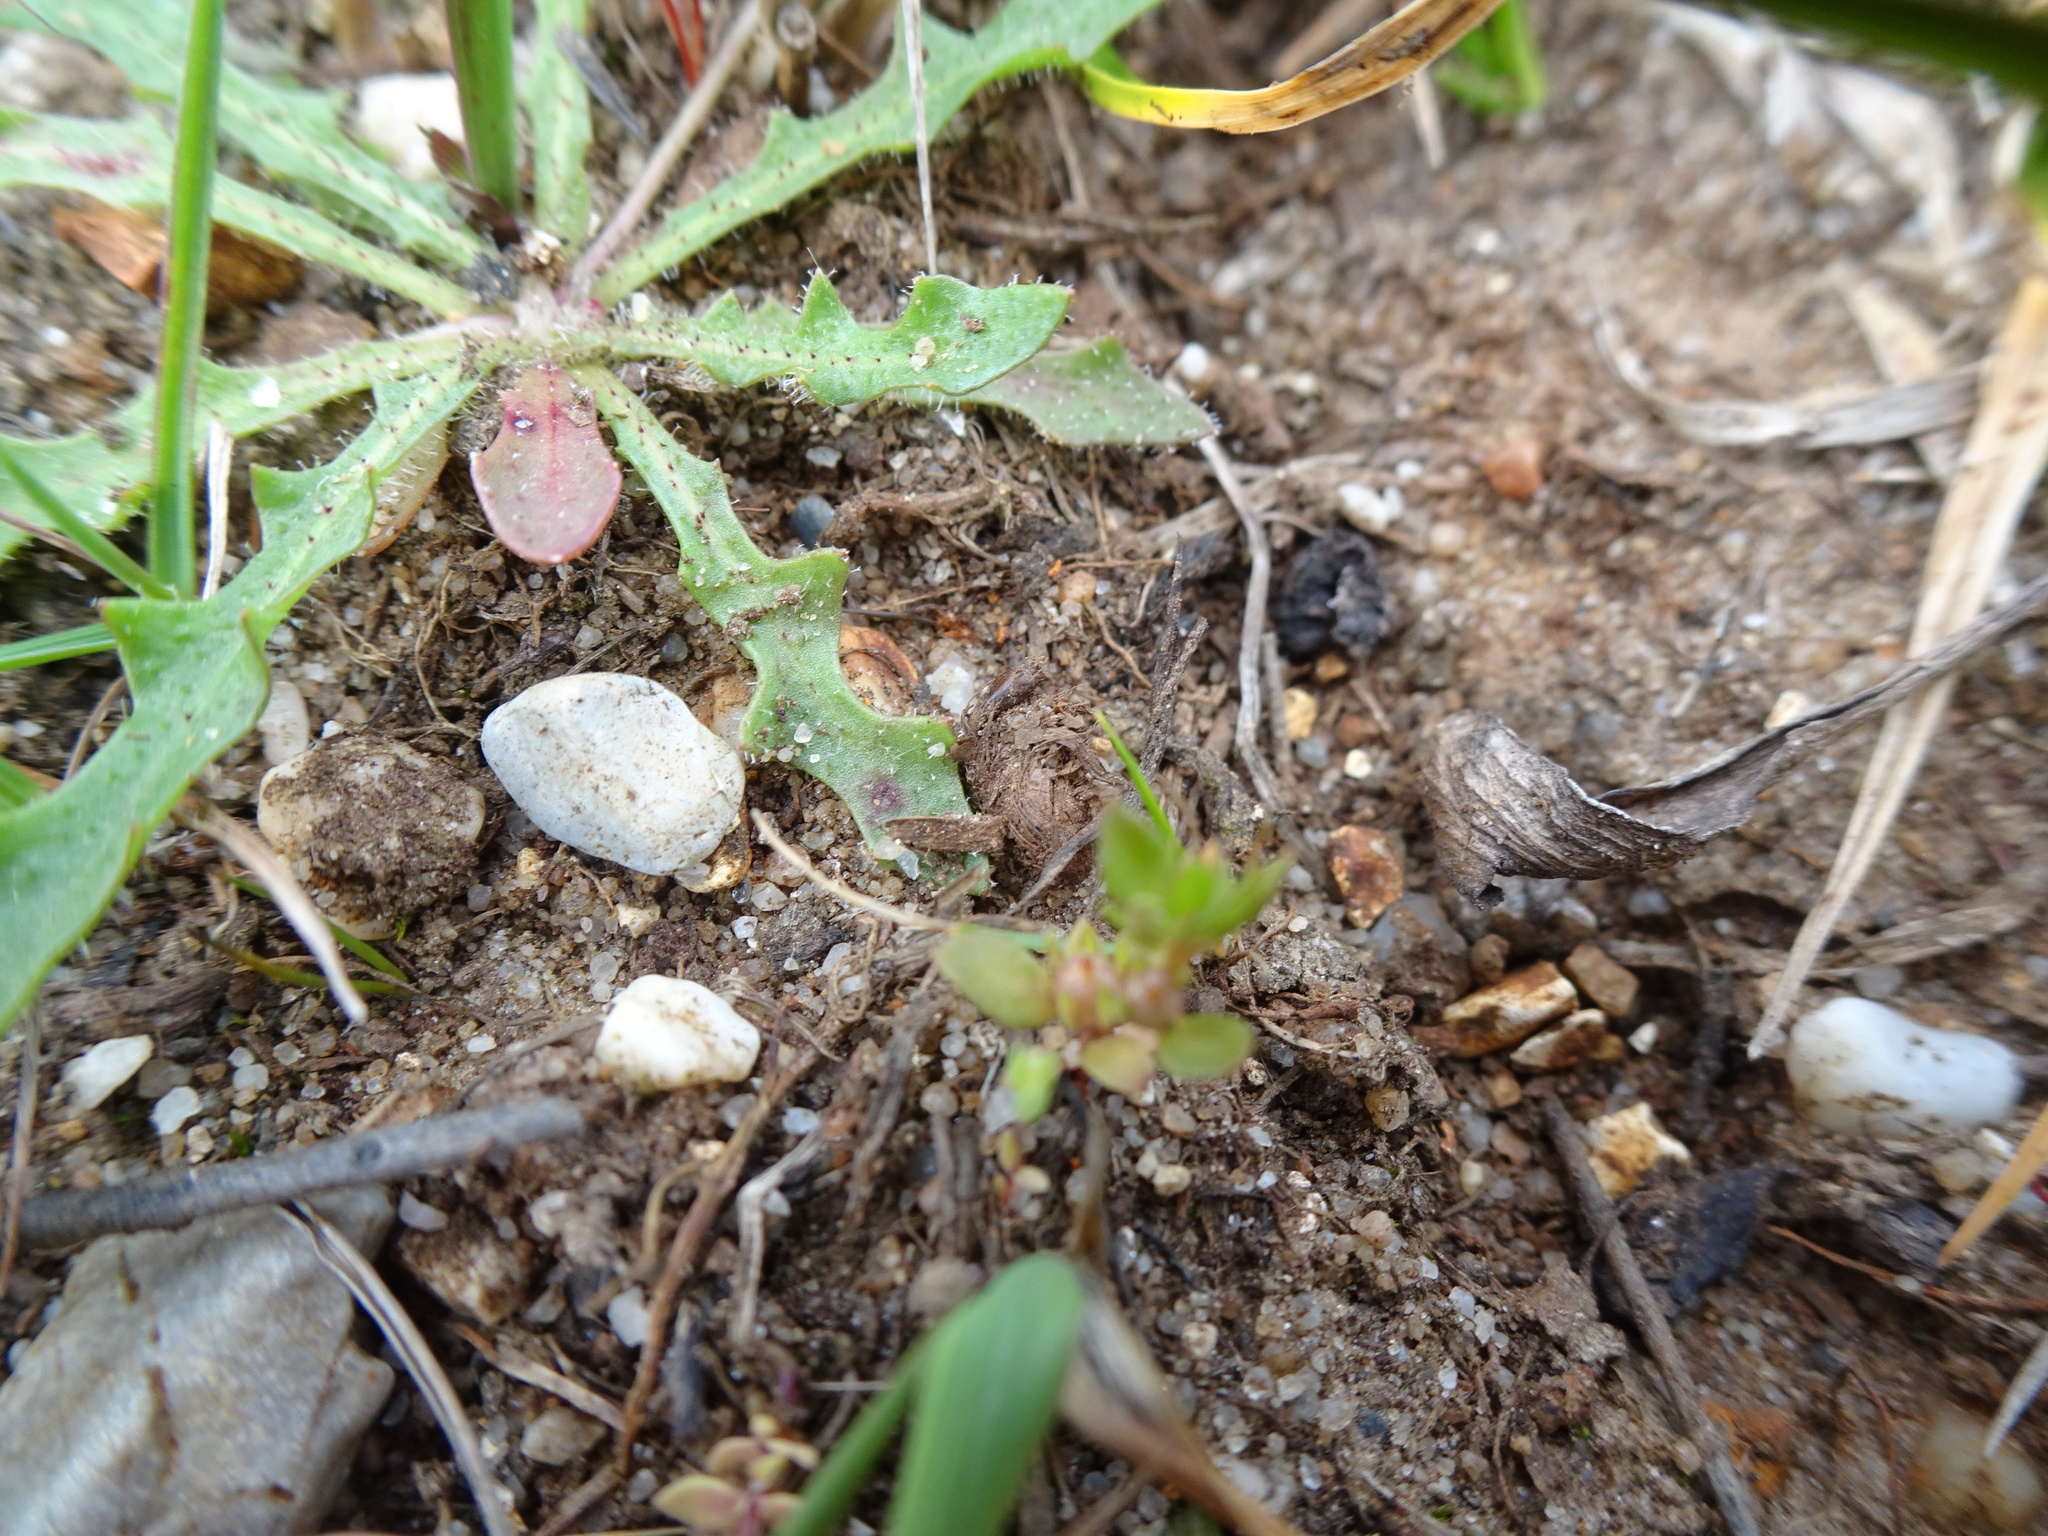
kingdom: Plantae
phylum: Tracheophyta
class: Magnoliopsida
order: Ericales
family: Primulaceae
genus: Lysimachia
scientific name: Lysimachia minima
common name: Chaffweed
